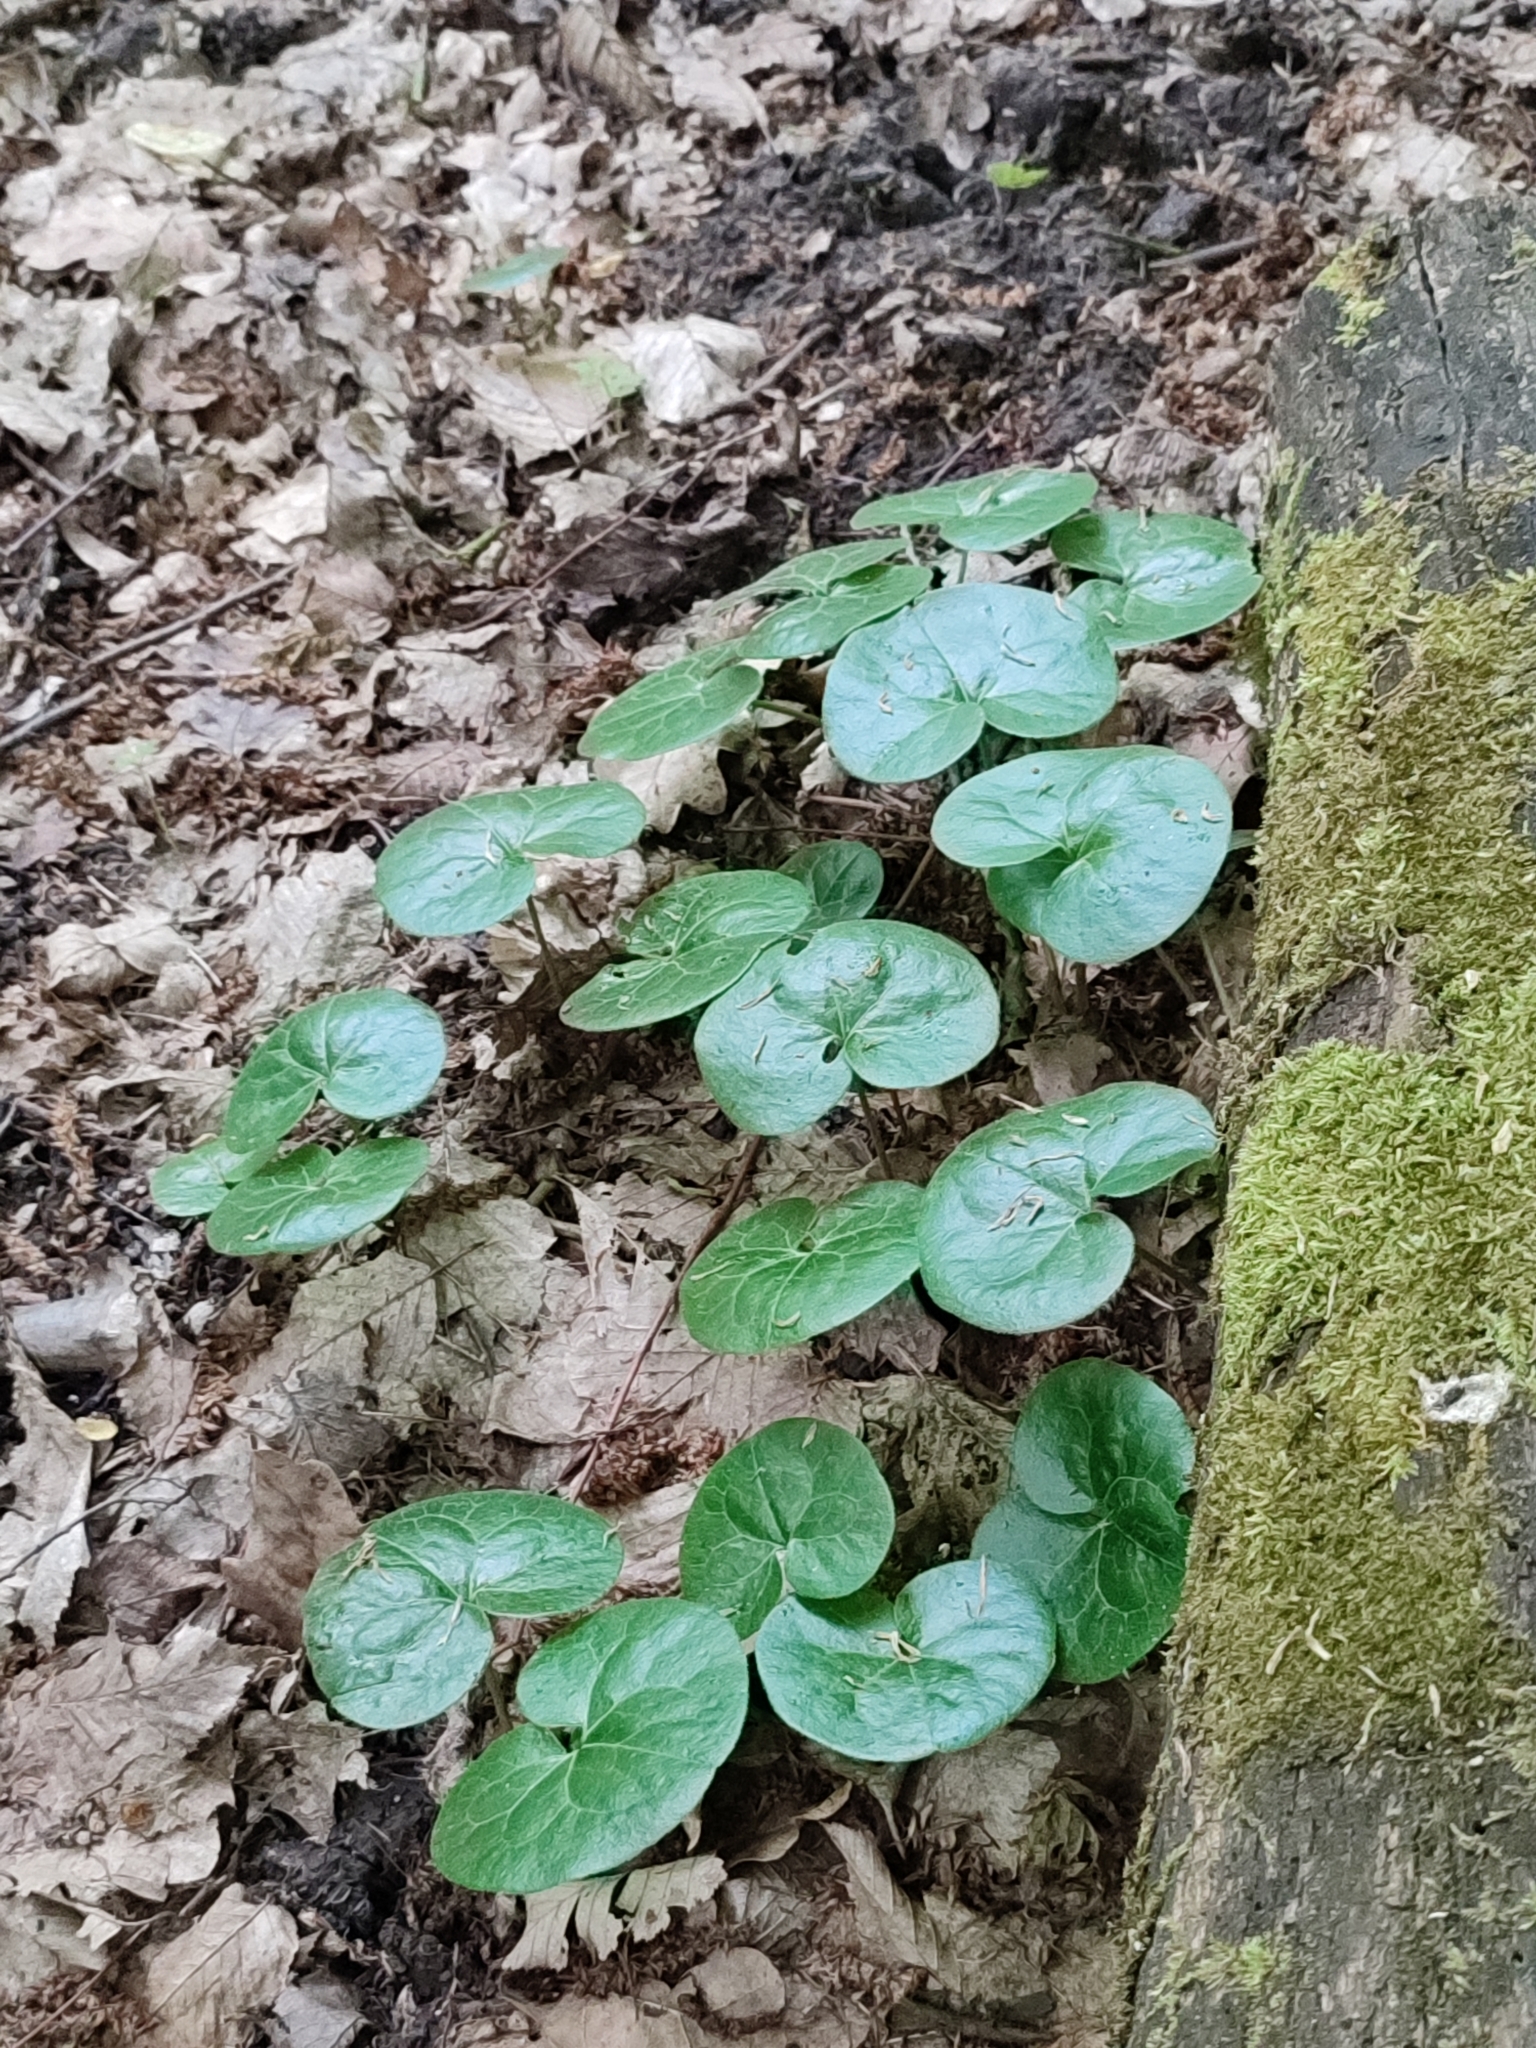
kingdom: Plantae
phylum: Tracheophyta
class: Magnoliopsida
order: Piperales
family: Aristolochiaceae
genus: Asarum
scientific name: Asarum europaeum
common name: Asarabacca
